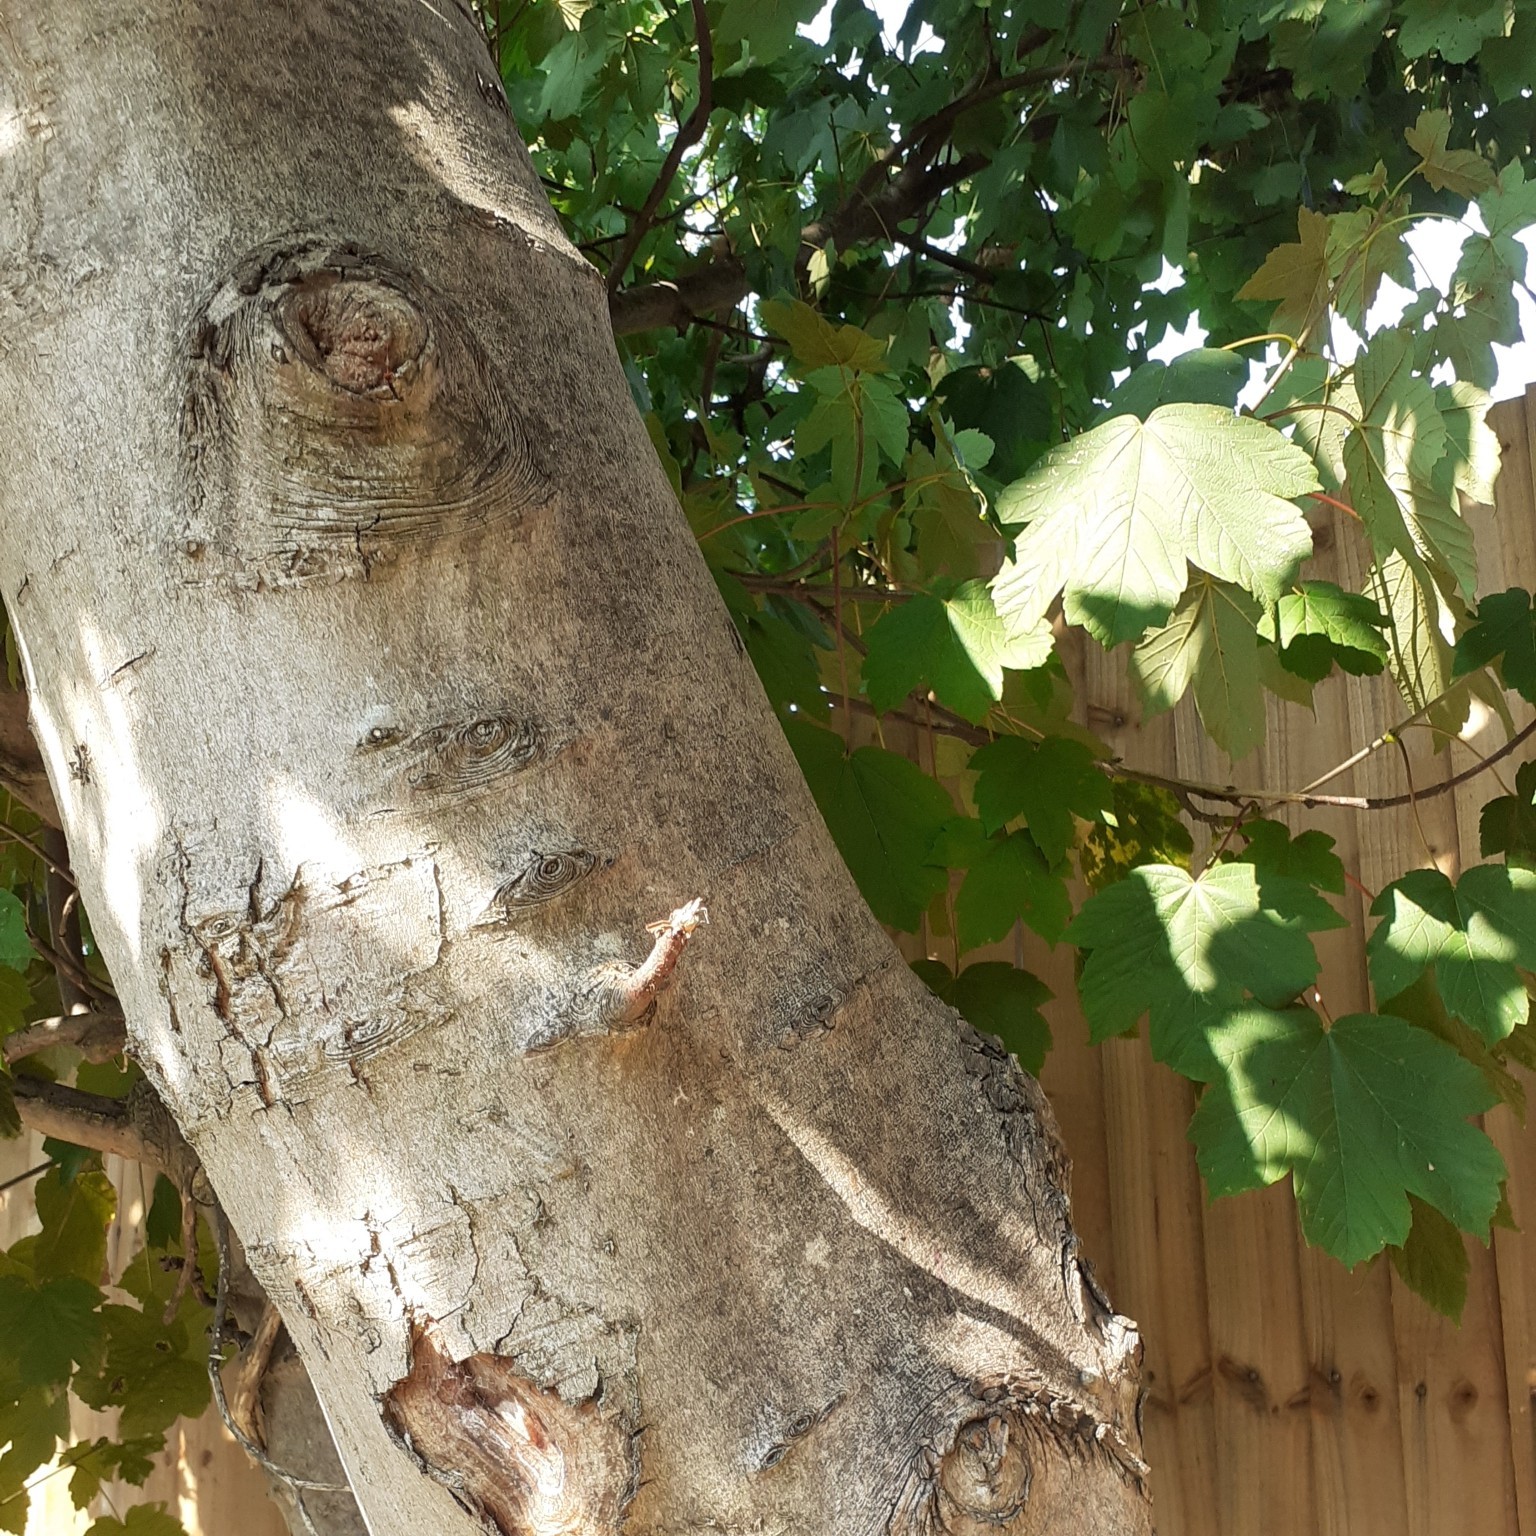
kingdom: Plantae
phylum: Tracheophyta
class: Magnoliopsida
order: Sapindales
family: Sapindaceae
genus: Acer
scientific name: Acer pseudoplatanus
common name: Sycamore
